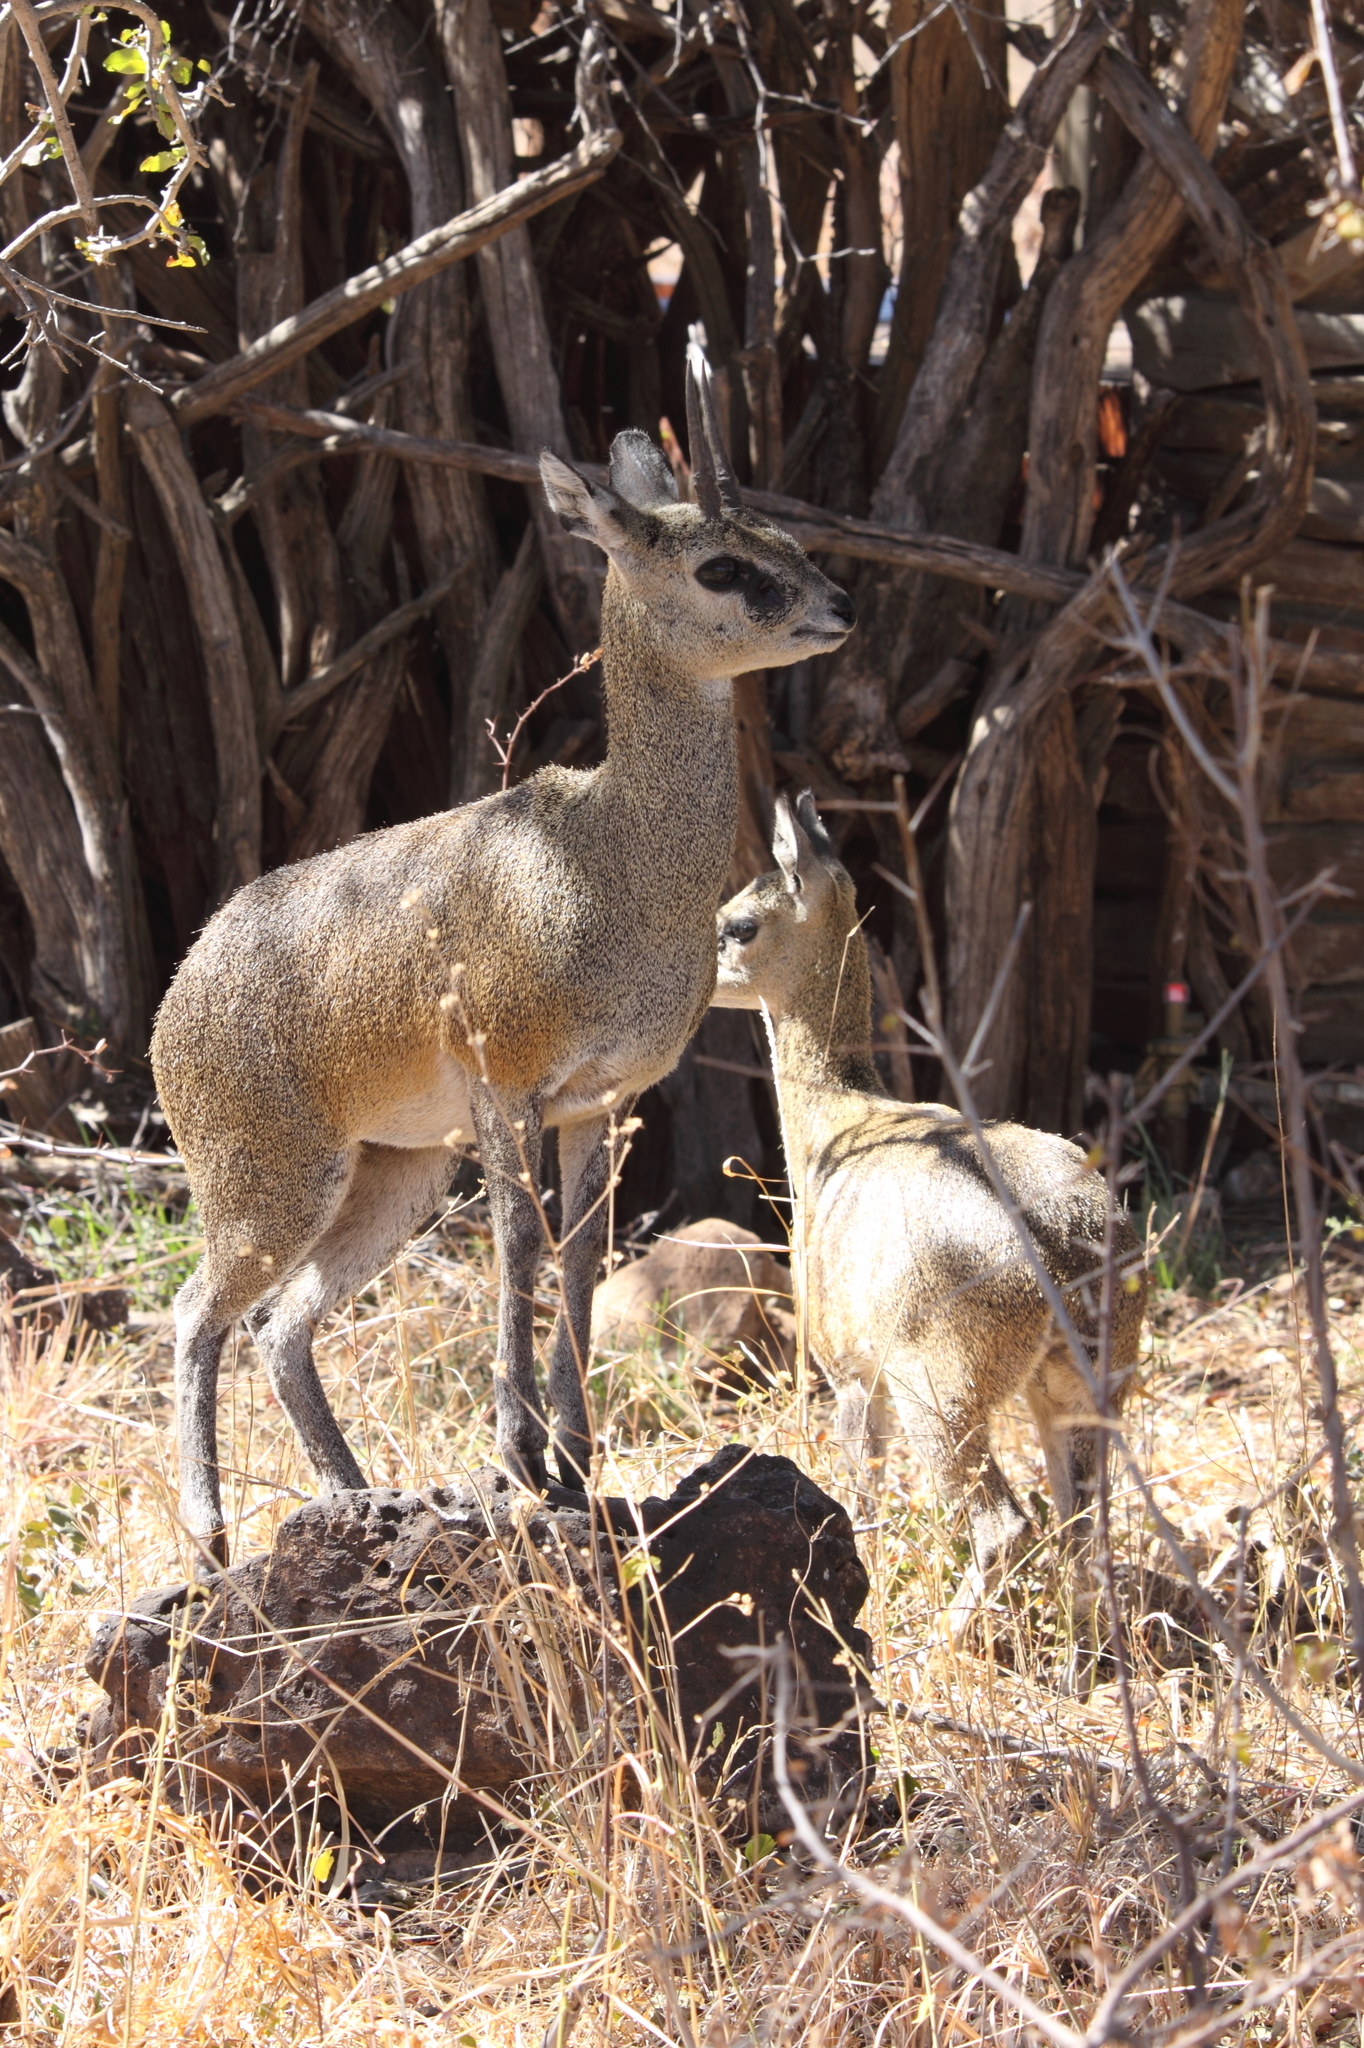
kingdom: Animalia
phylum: Chordata
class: Mammalia
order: Artiodactyla
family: Bovidae
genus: Oreotragus
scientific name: Oreotragus oreotragus
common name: Klipspringer
